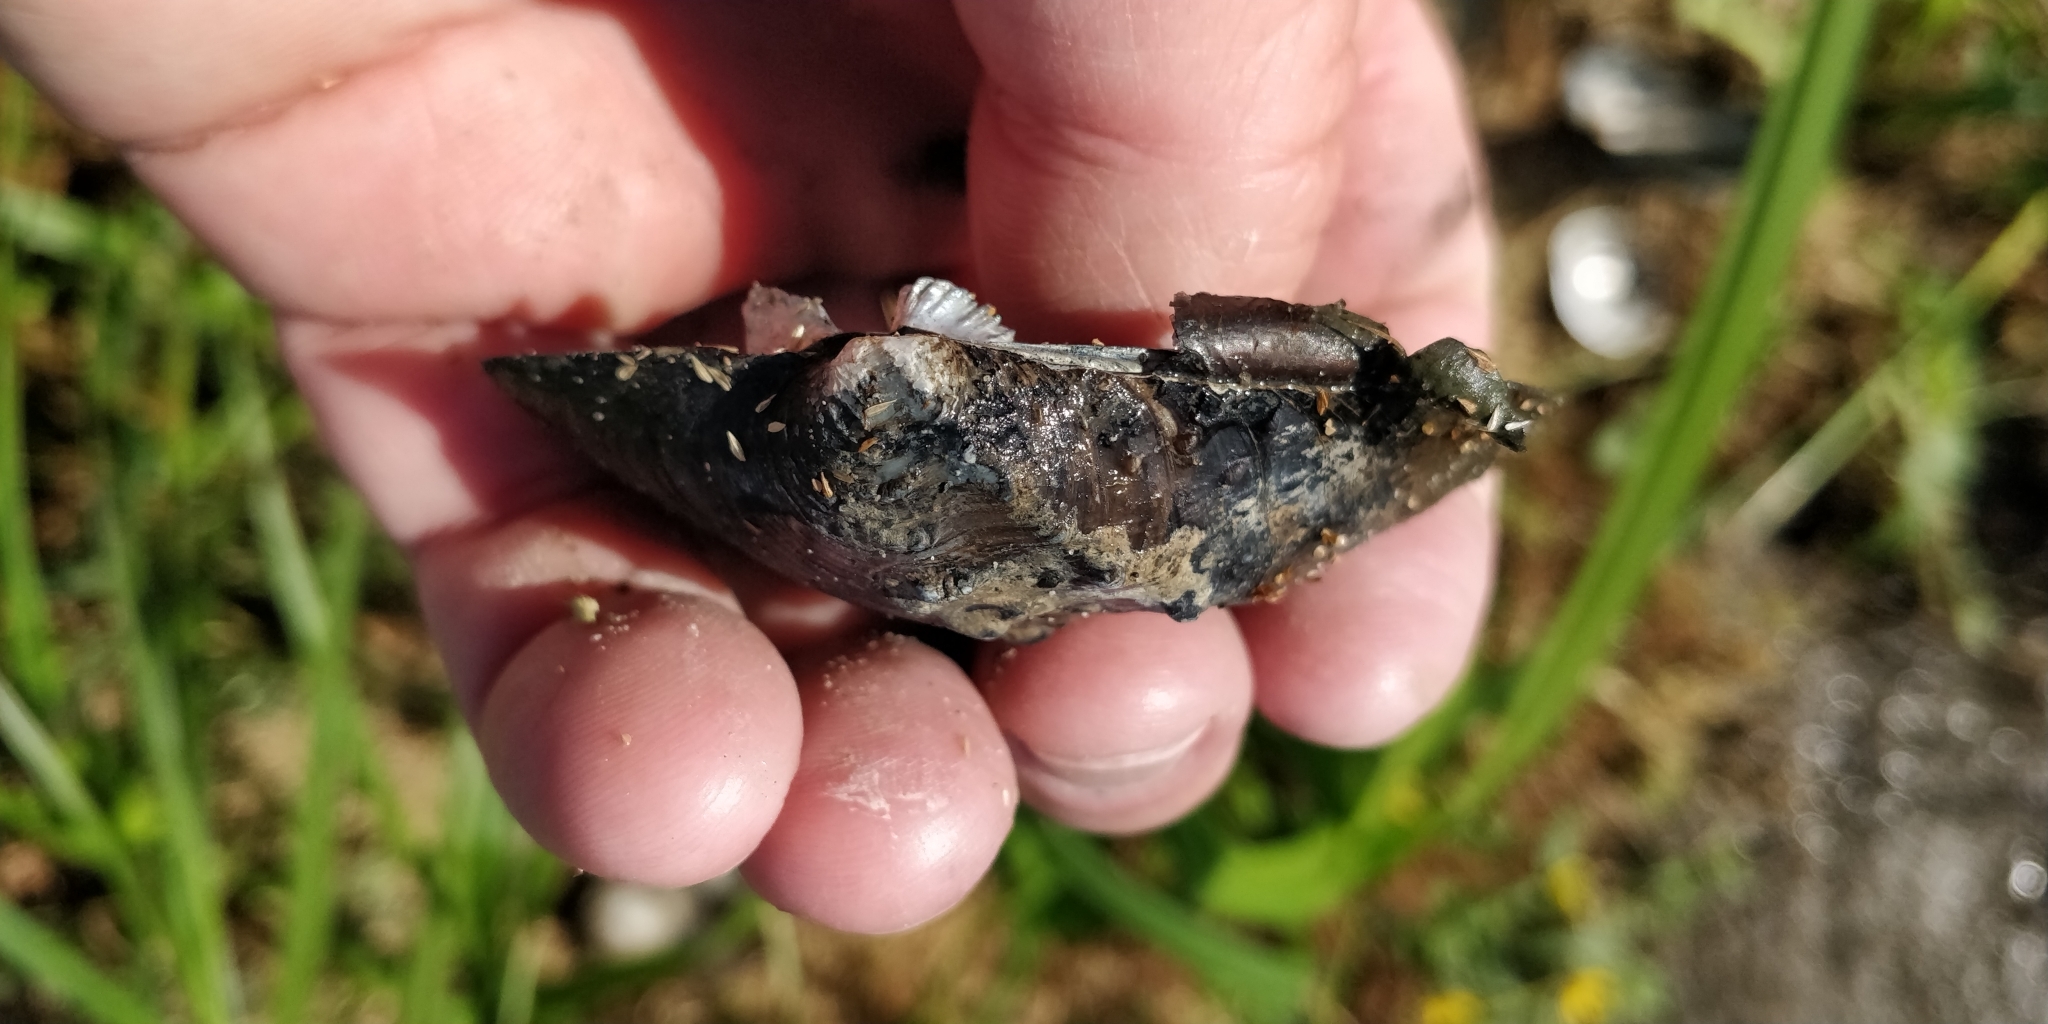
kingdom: Animalia
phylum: Mollusca
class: Bivalvia
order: Unionida
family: Unionidae
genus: Quadrula
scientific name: Quadrula quadrula
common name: Mapleleaf
